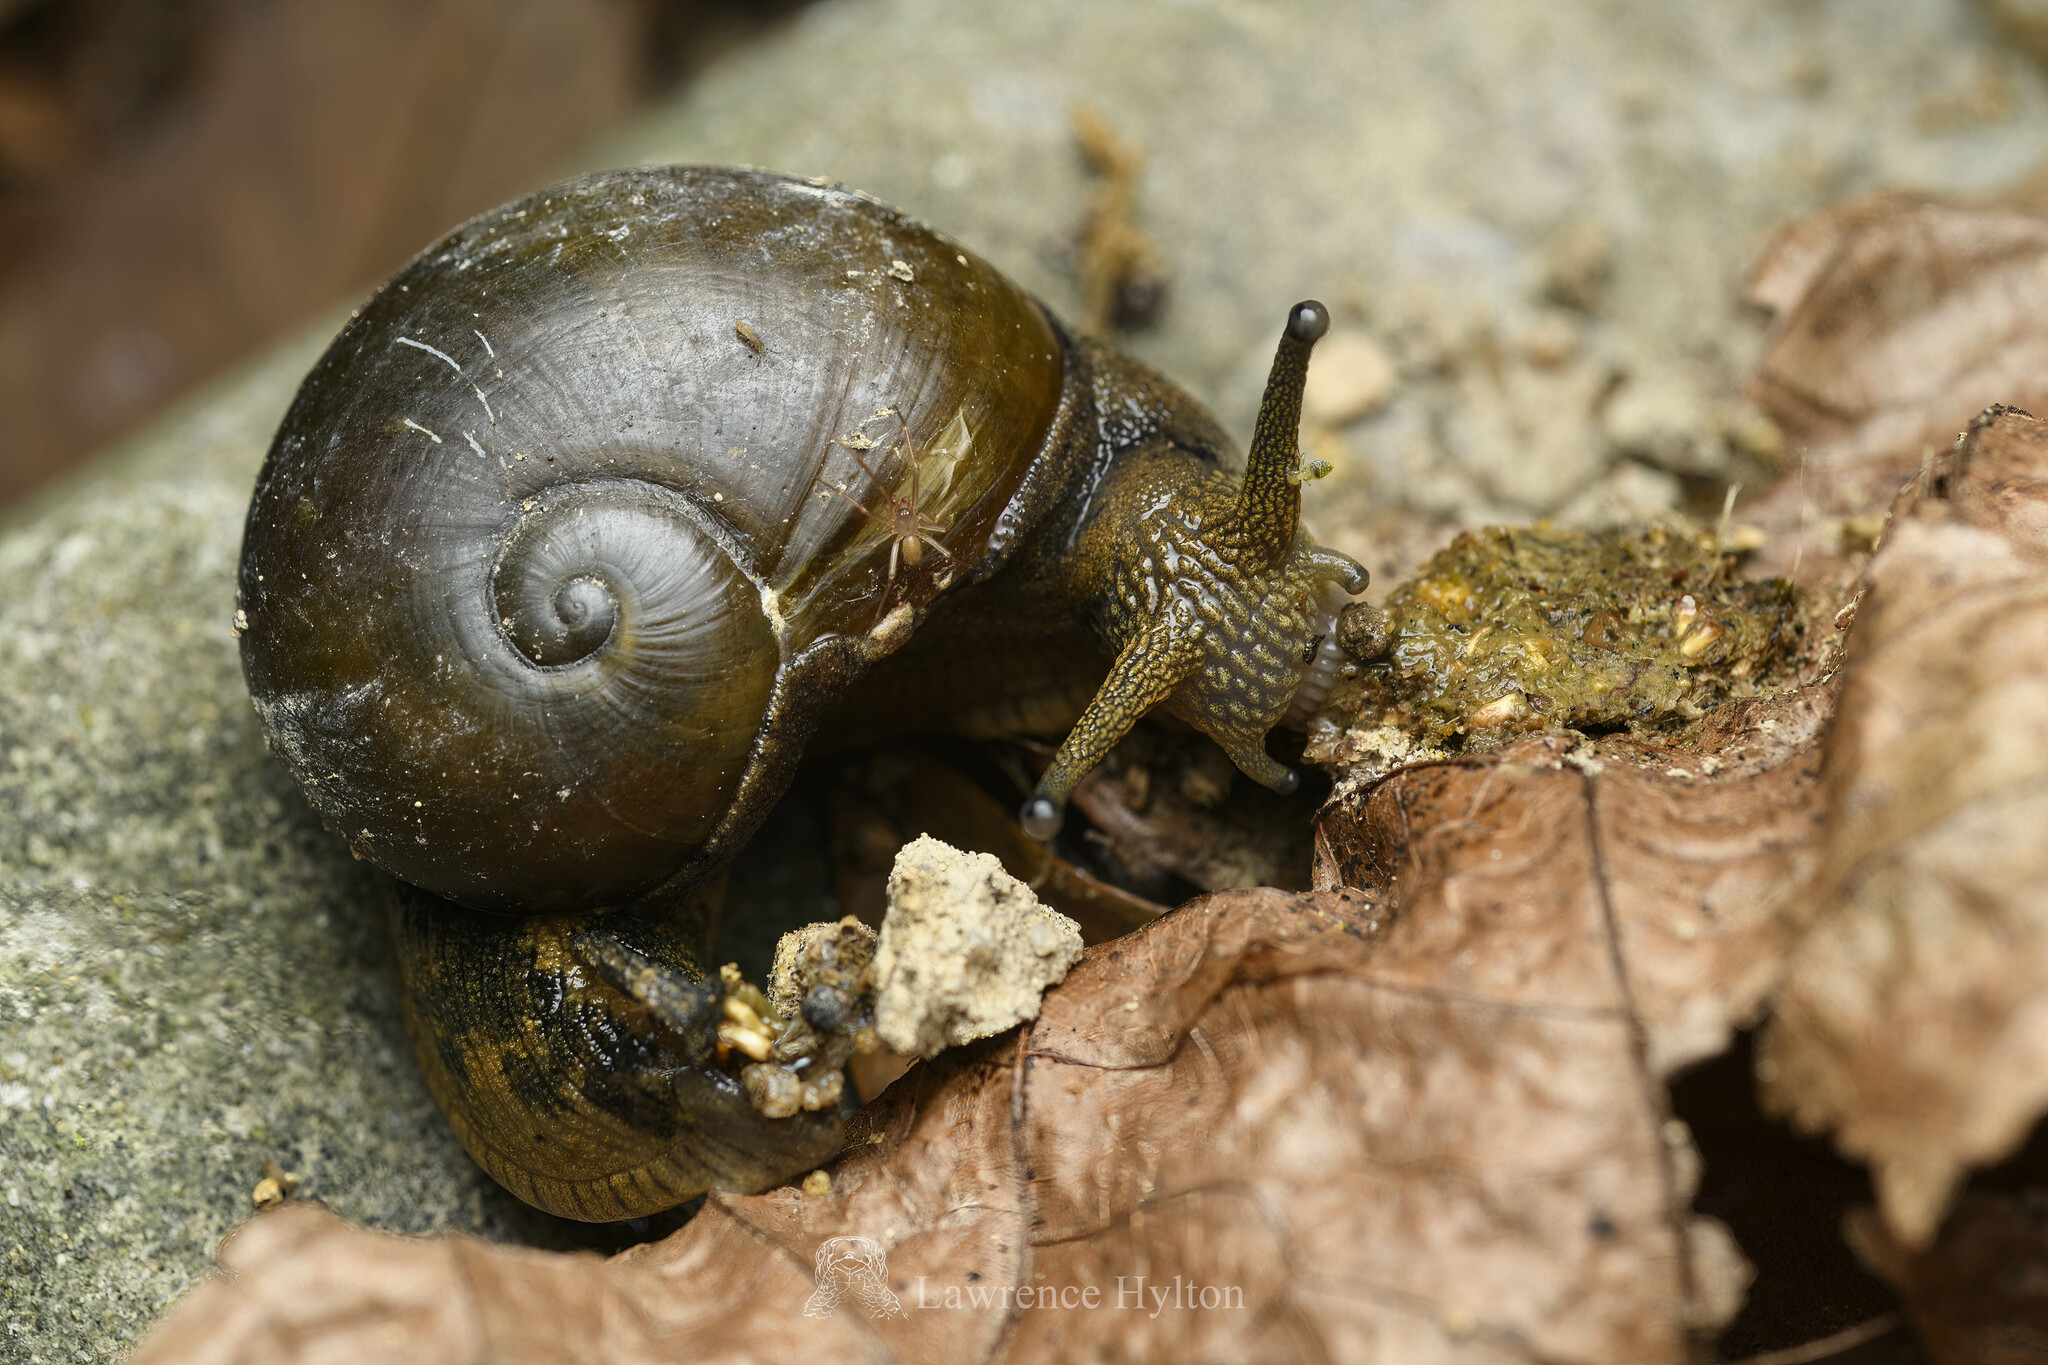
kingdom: Animalia
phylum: Mollusca
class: Gastropoda
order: Stylommatophora
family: Ariophantidae
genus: Megaustenia
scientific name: Megaustenia imperator
